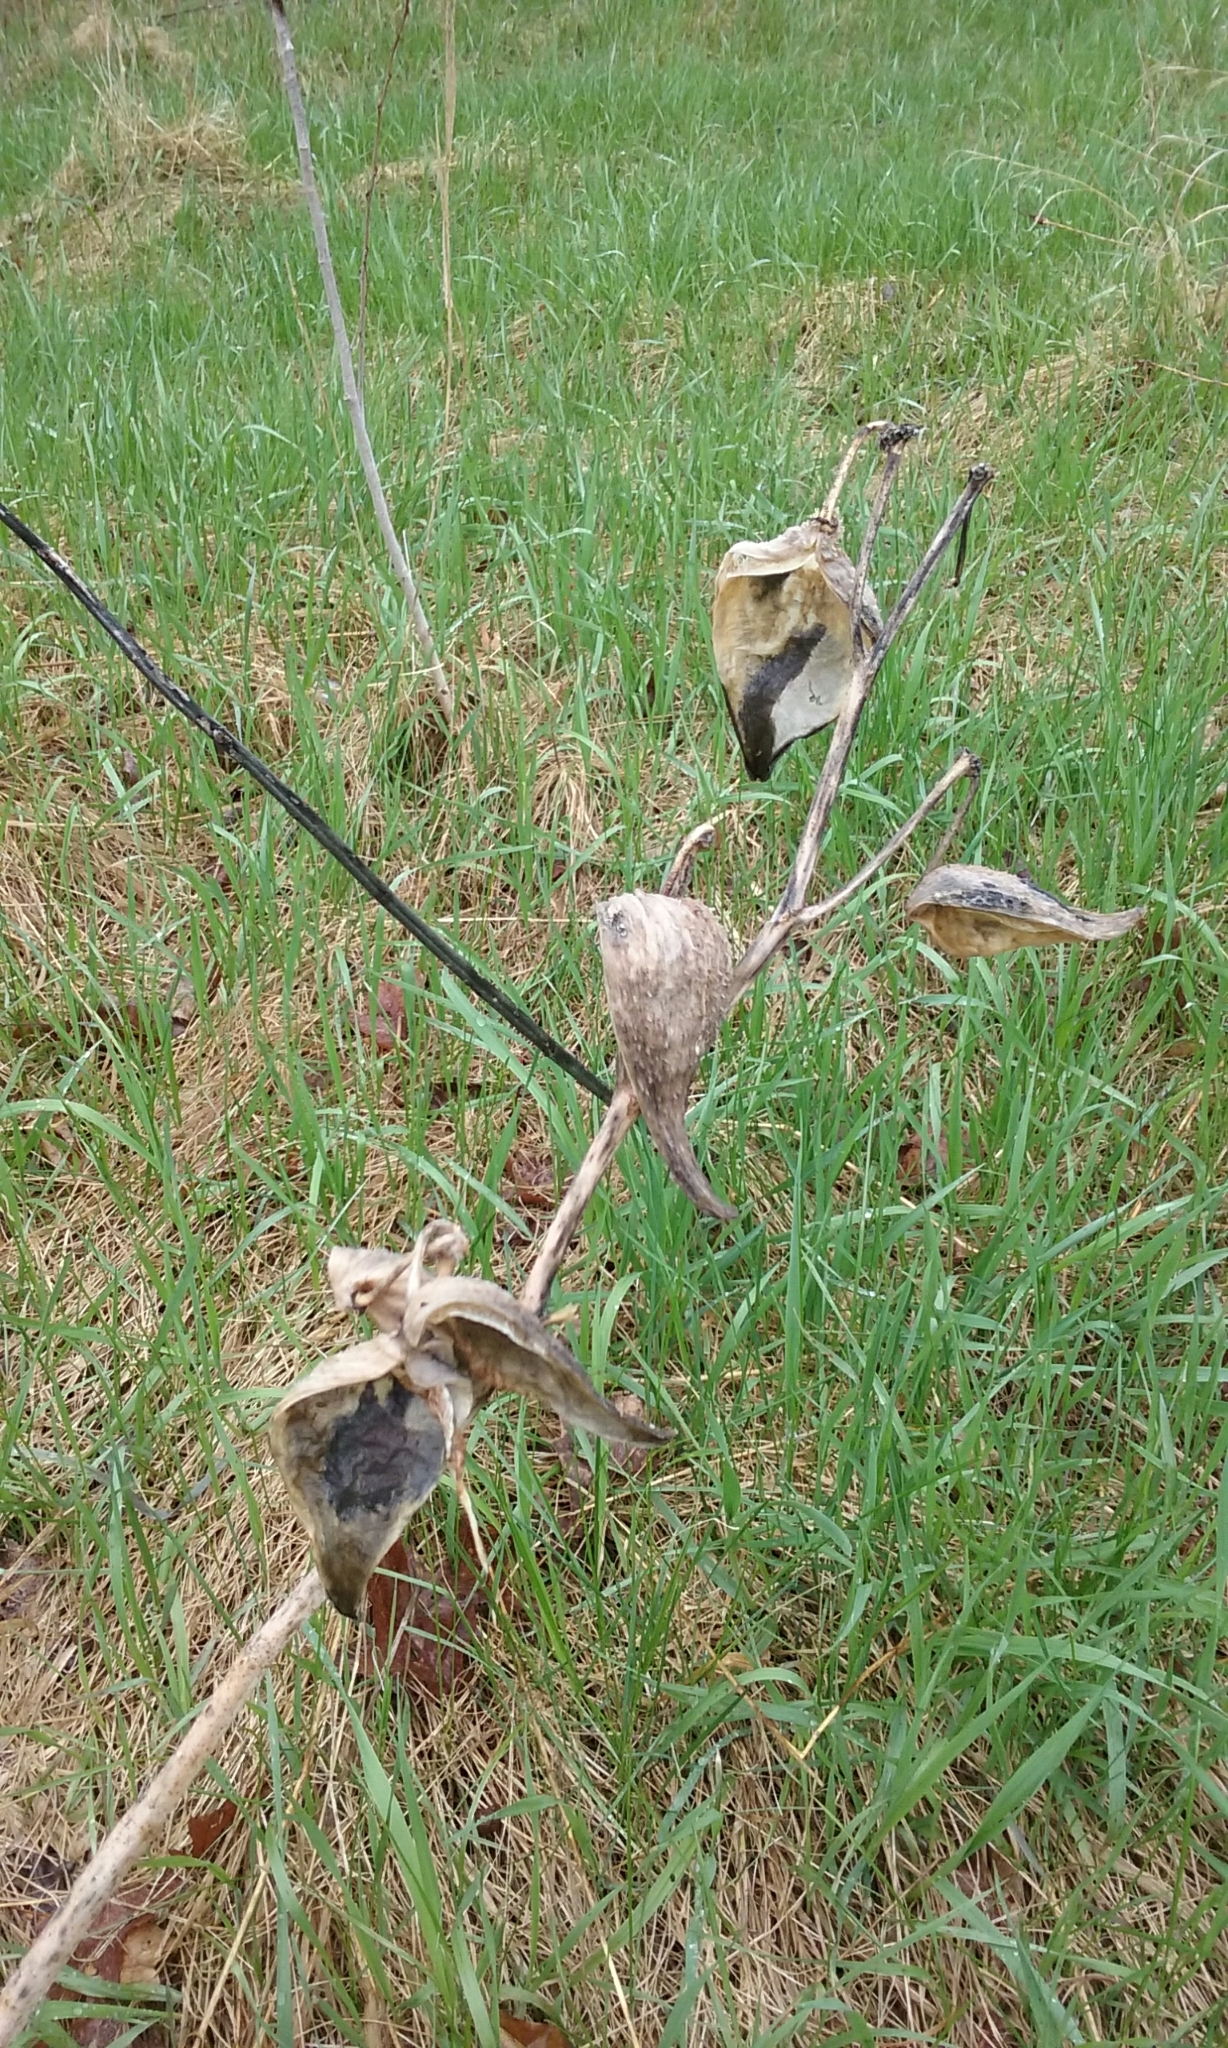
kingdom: Plantae
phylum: Tracheophyta
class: Magnoliopsida
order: Gentianales
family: Apocynaceae
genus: Asclepias
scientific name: Asclepias syriaca
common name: Common milkweed
